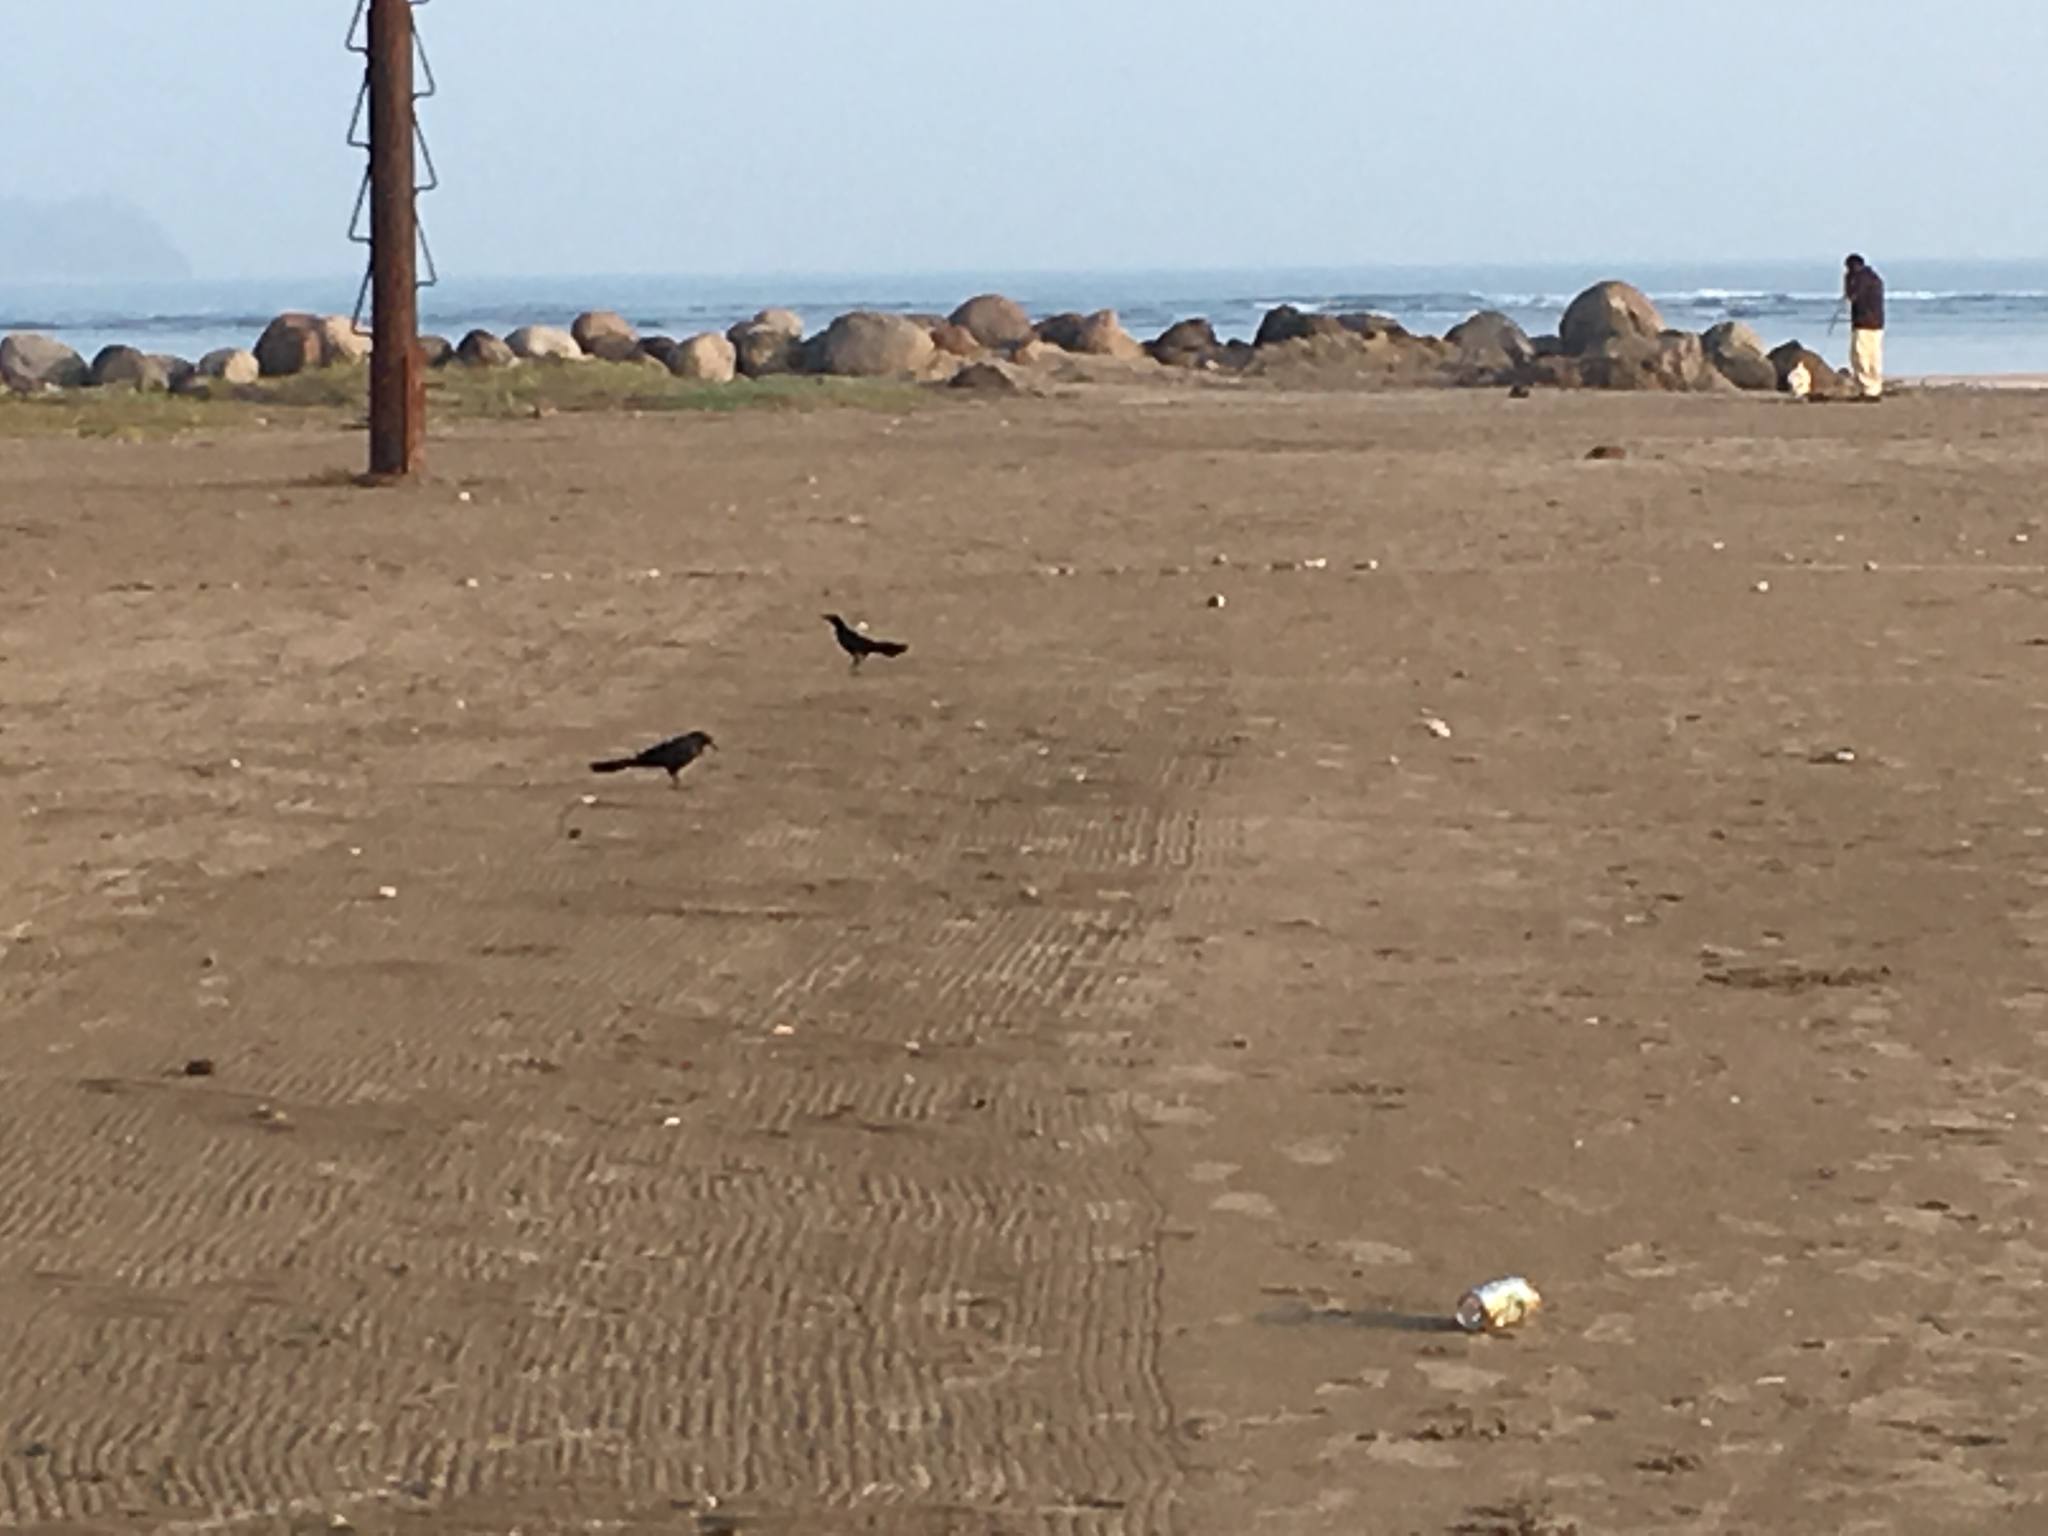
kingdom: Animalia
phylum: Chordata
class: Aves
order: Passeriformes
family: Icteridae
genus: Quiscalus
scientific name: Quiscalus mexicanus
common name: Great-tailed grackle
